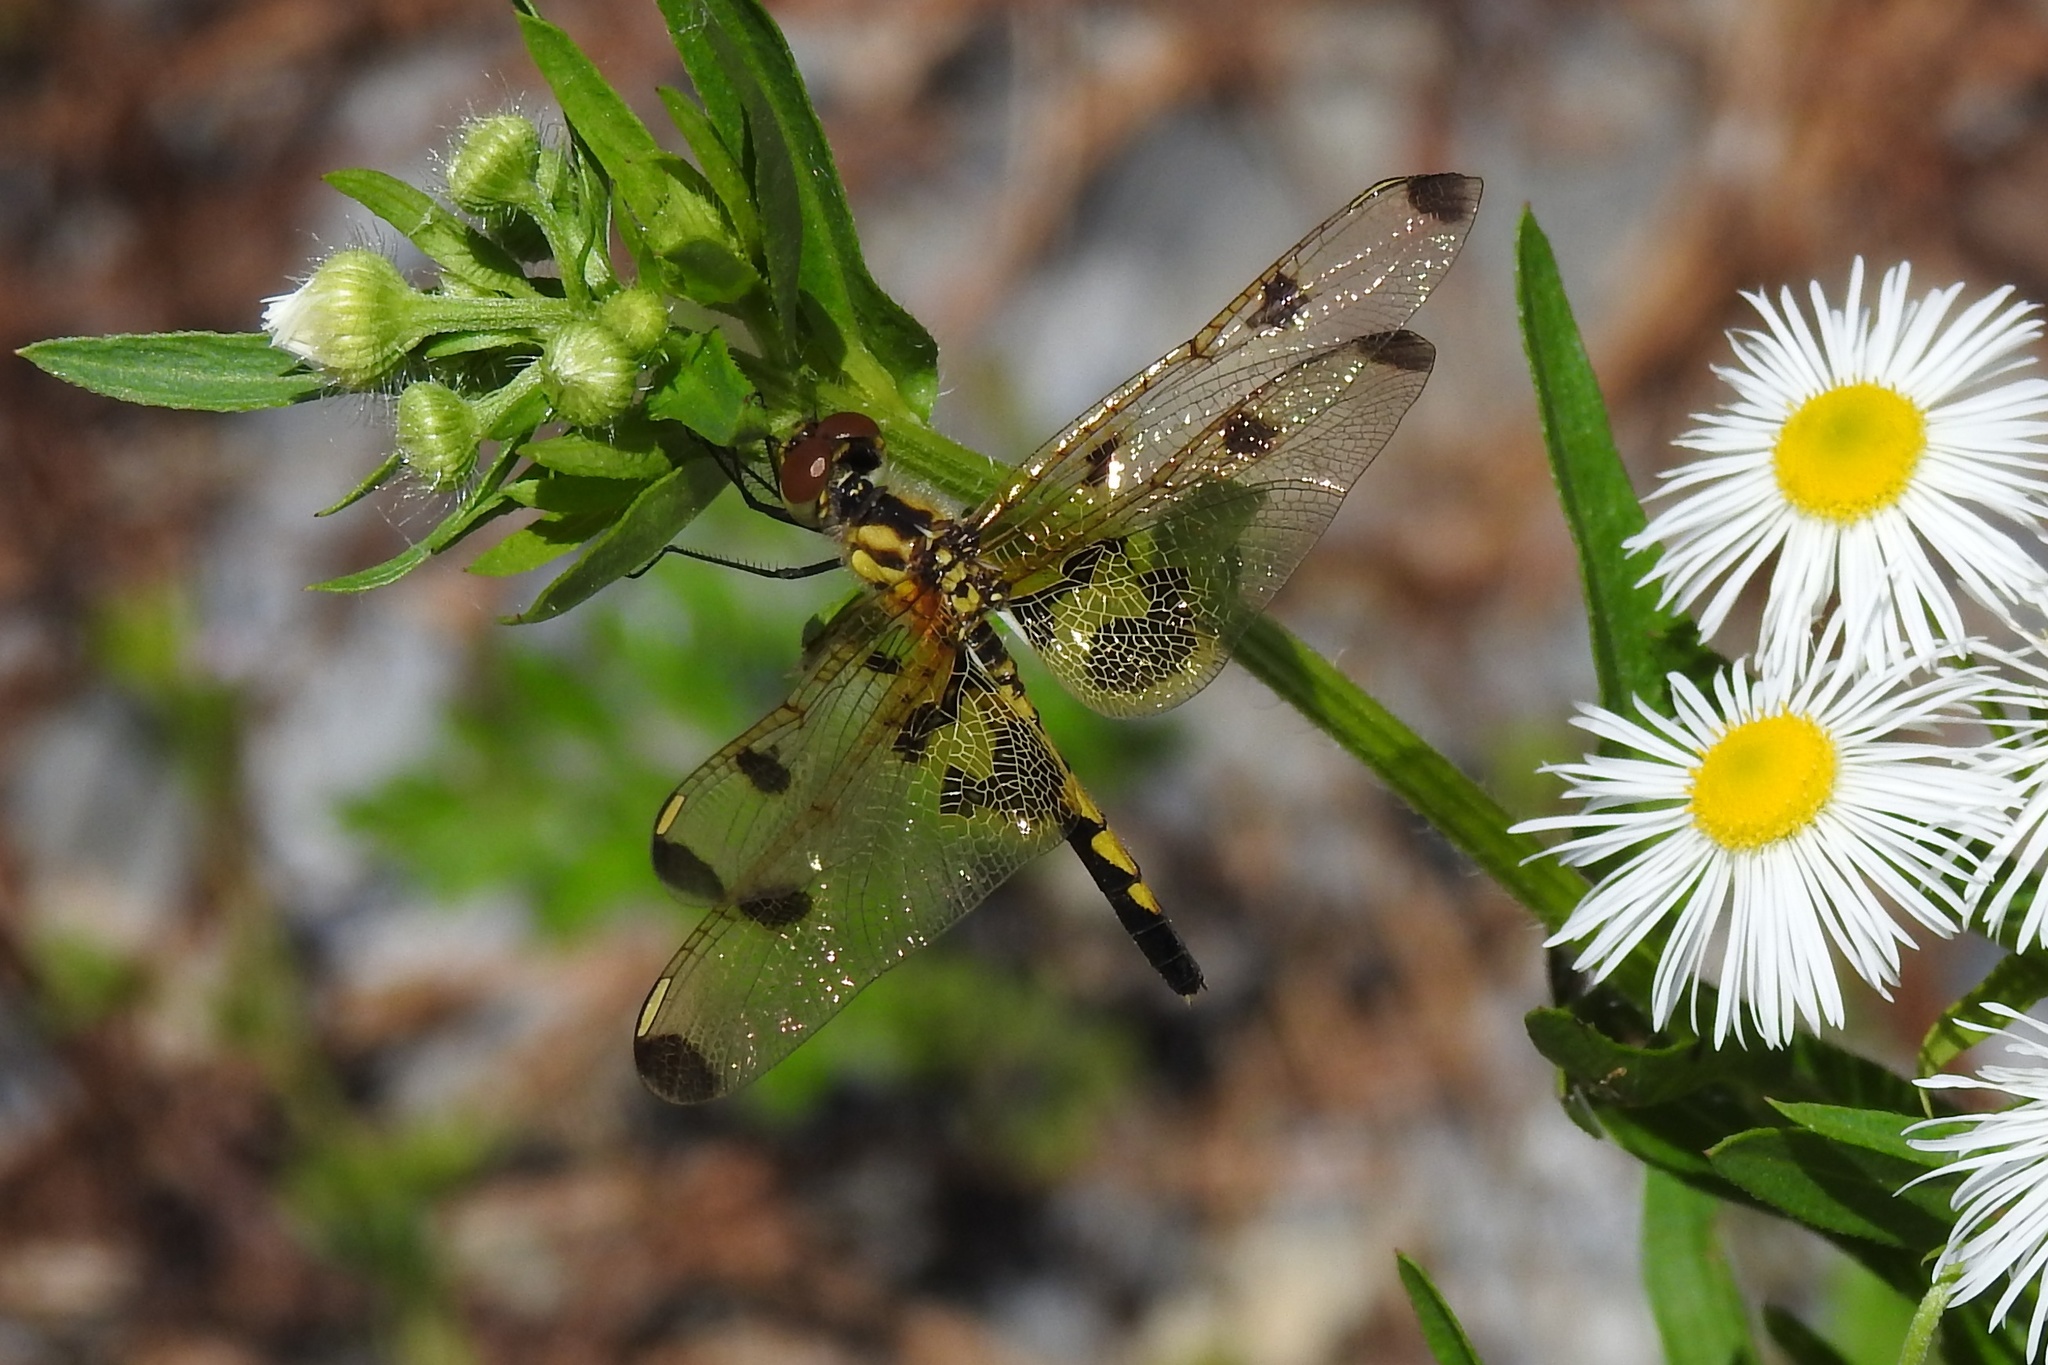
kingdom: Animalia
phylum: Arthropoda
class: Insecta
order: Odonata
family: Libellulidae
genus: Celithemis
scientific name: Celithemis elisa
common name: Calico pennant
